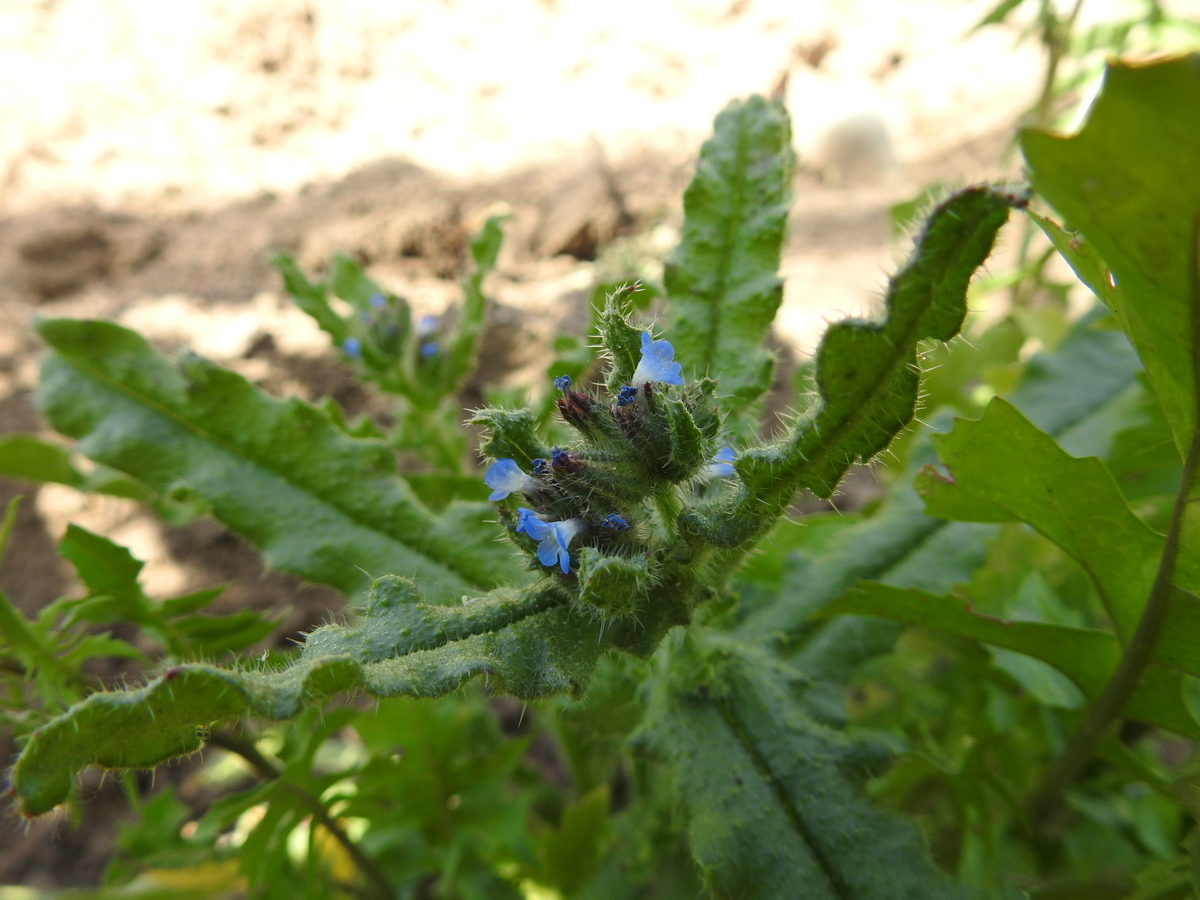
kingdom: Plantae
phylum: Tracheophyta
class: Magnoliopsida
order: Boraginales
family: Boraginaceae
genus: Lycopsis
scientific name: Lycopsis arvensis
